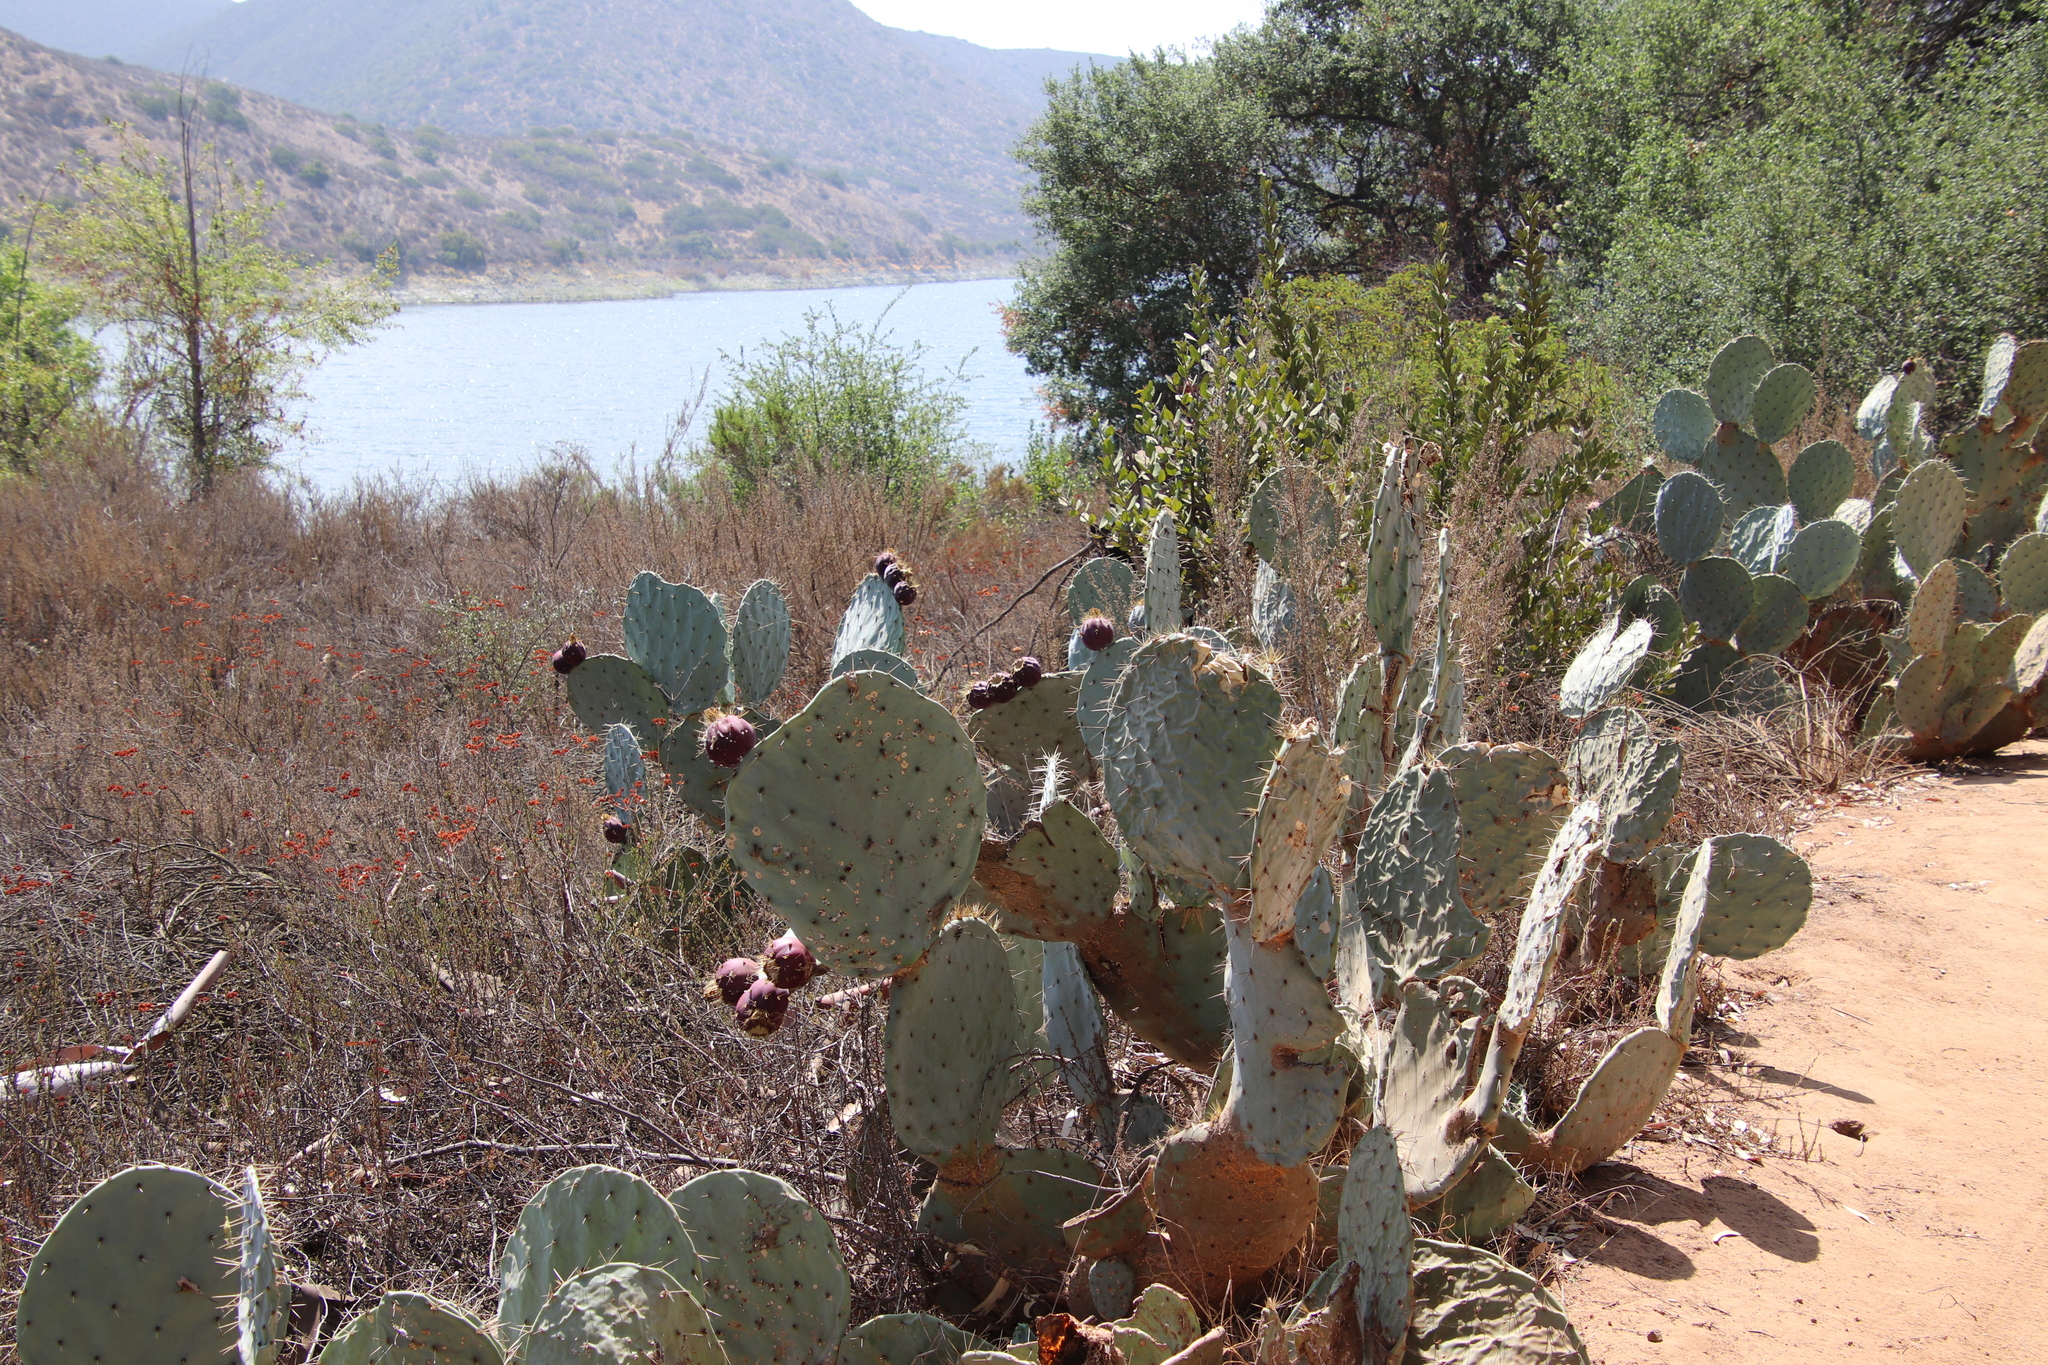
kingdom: Plantae
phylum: Tracheophyta
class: Magnoliopsida
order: Caryophyllales
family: Cactaceae
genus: Opuntia
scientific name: Opuntia robusta
